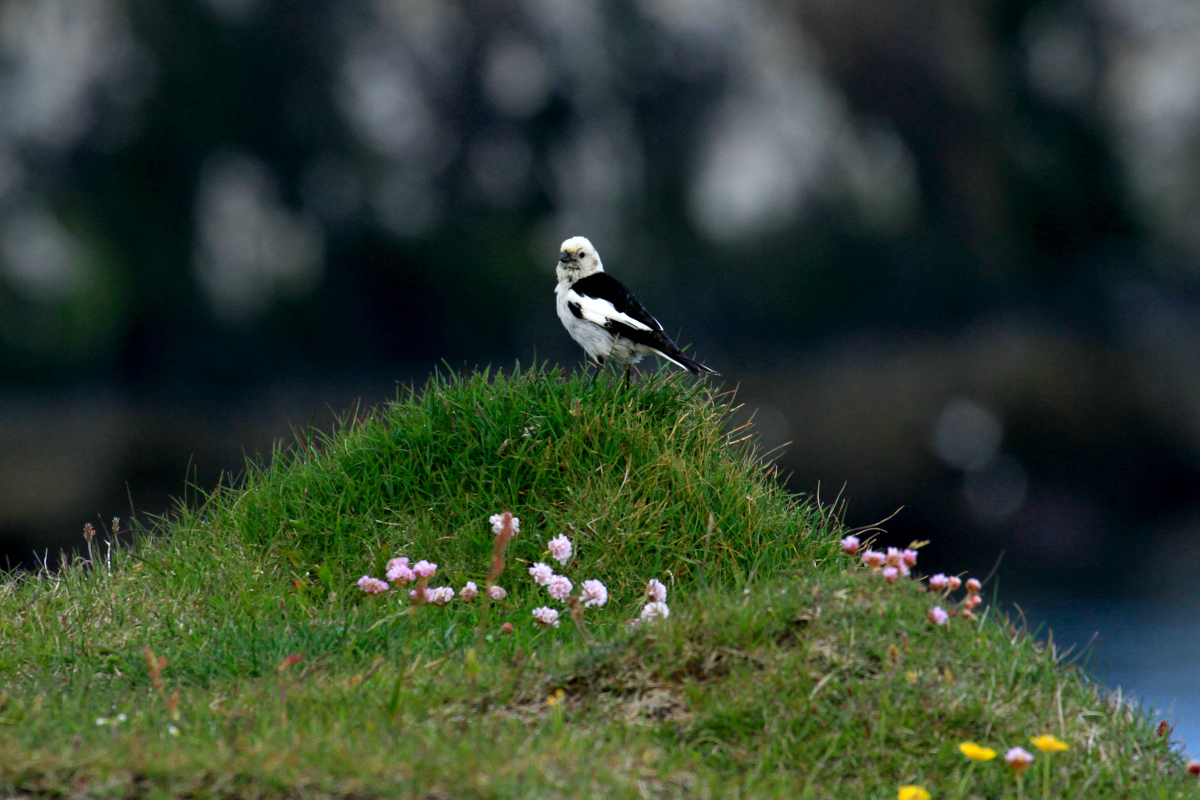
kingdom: Animalia
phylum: Chordata
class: Aves
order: Passeriformes
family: Calcariidae
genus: Plectrophenax
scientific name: Plectrophenax nivalis
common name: Snow bunting
